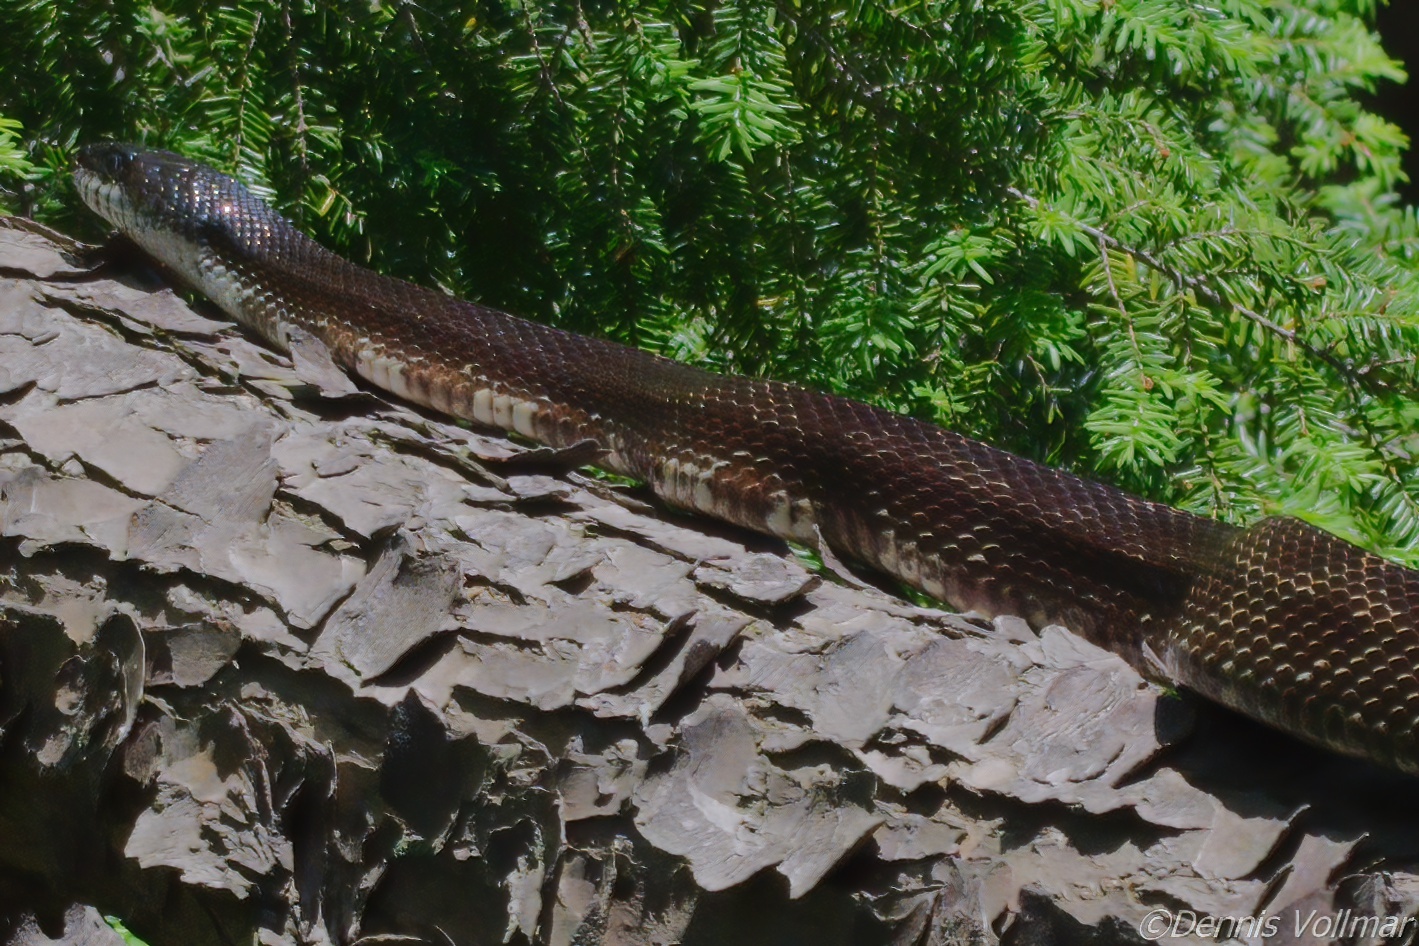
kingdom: Animalia
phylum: Chordata
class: Squamata
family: Colubridae
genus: Pantherophis
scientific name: Pantherophis spiloides
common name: Gray rat snake
